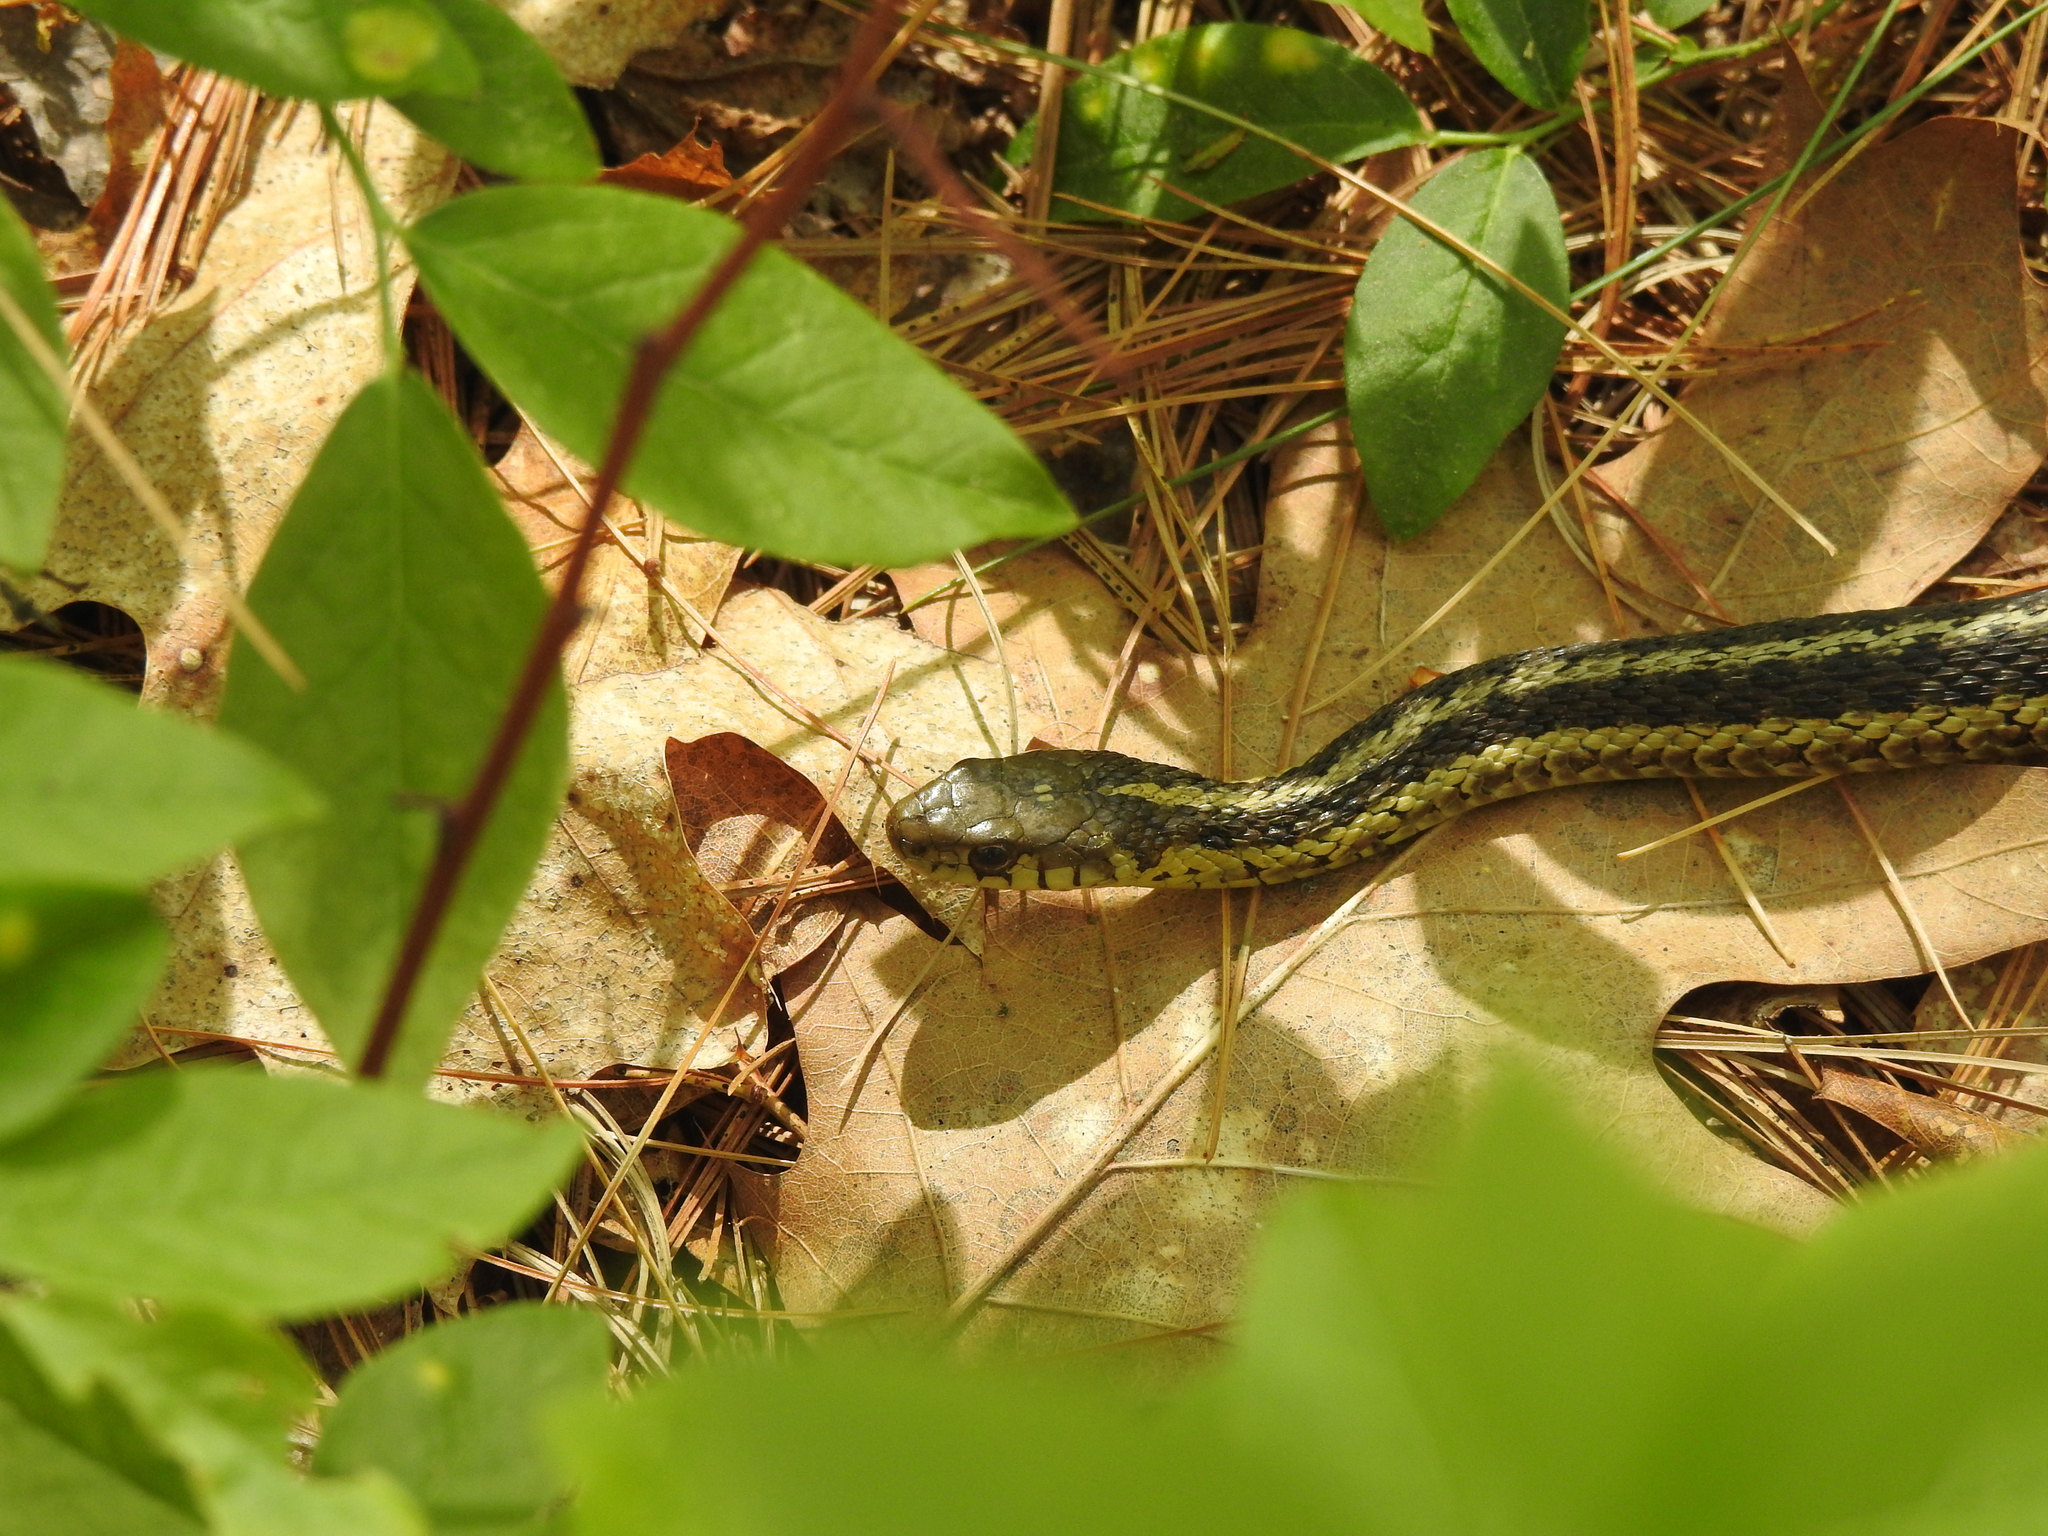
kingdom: Animalia
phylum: Chordata
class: Squamata
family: Colubridae
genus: Thamnophis
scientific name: Thamnophis sirtalis
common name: Common garter snake
